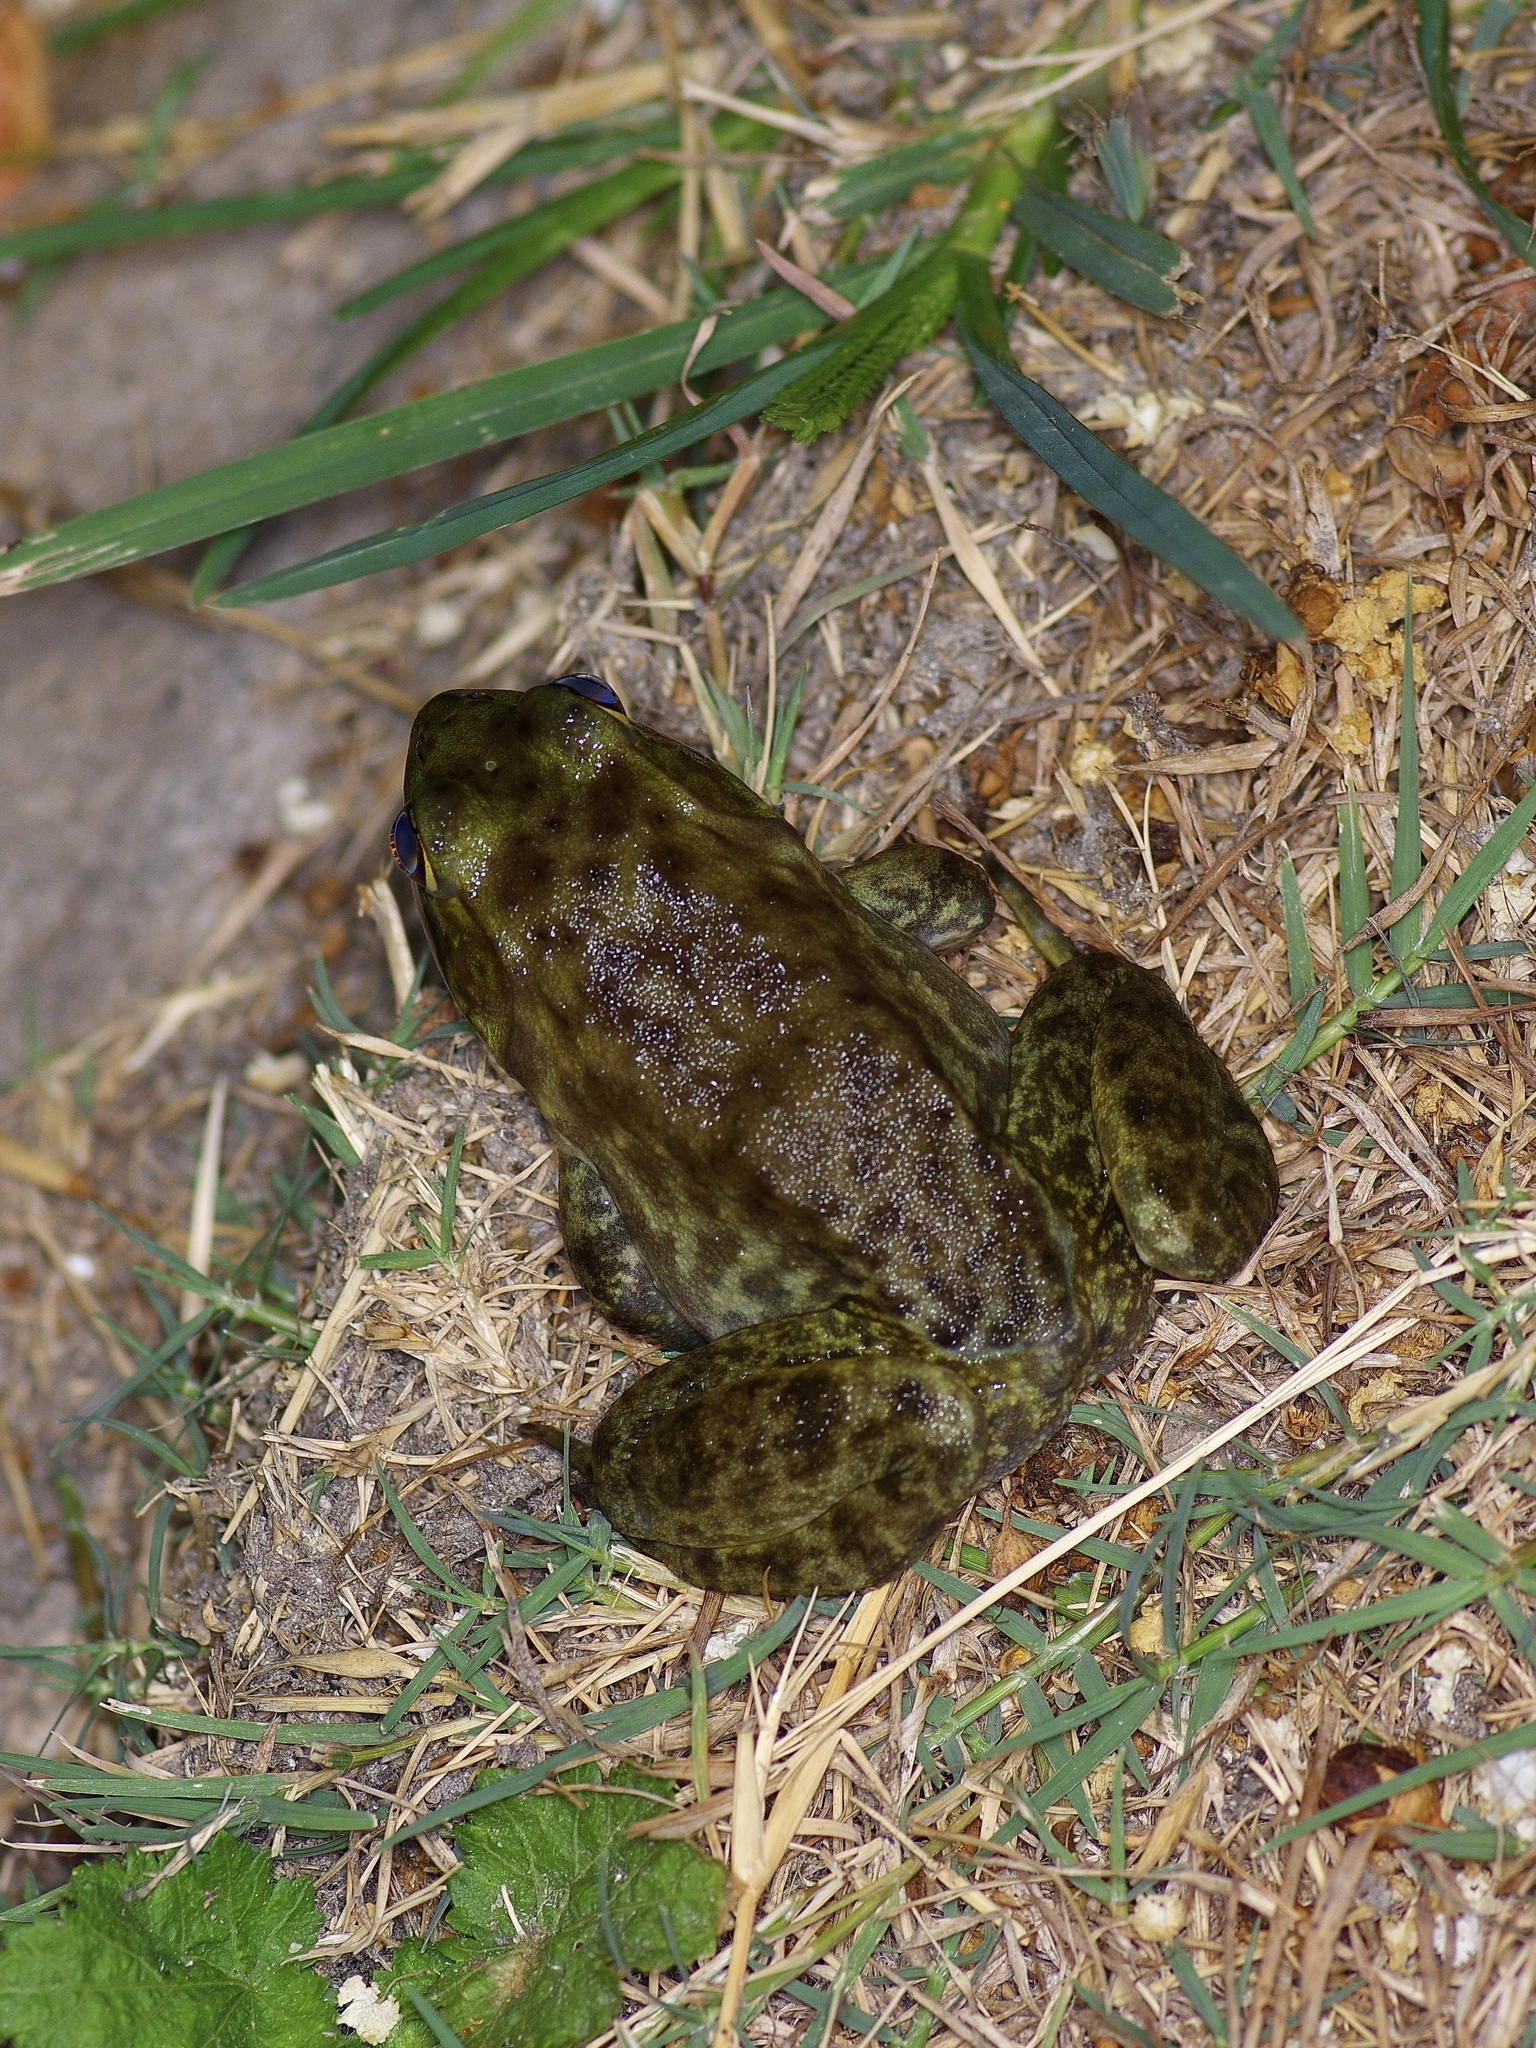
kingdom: Animalia
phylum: Chordata
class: Amphibia
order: Anura
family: Ranidae
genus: Lithobates
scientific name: Lithobates catesbeianus
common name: American bullfrog
